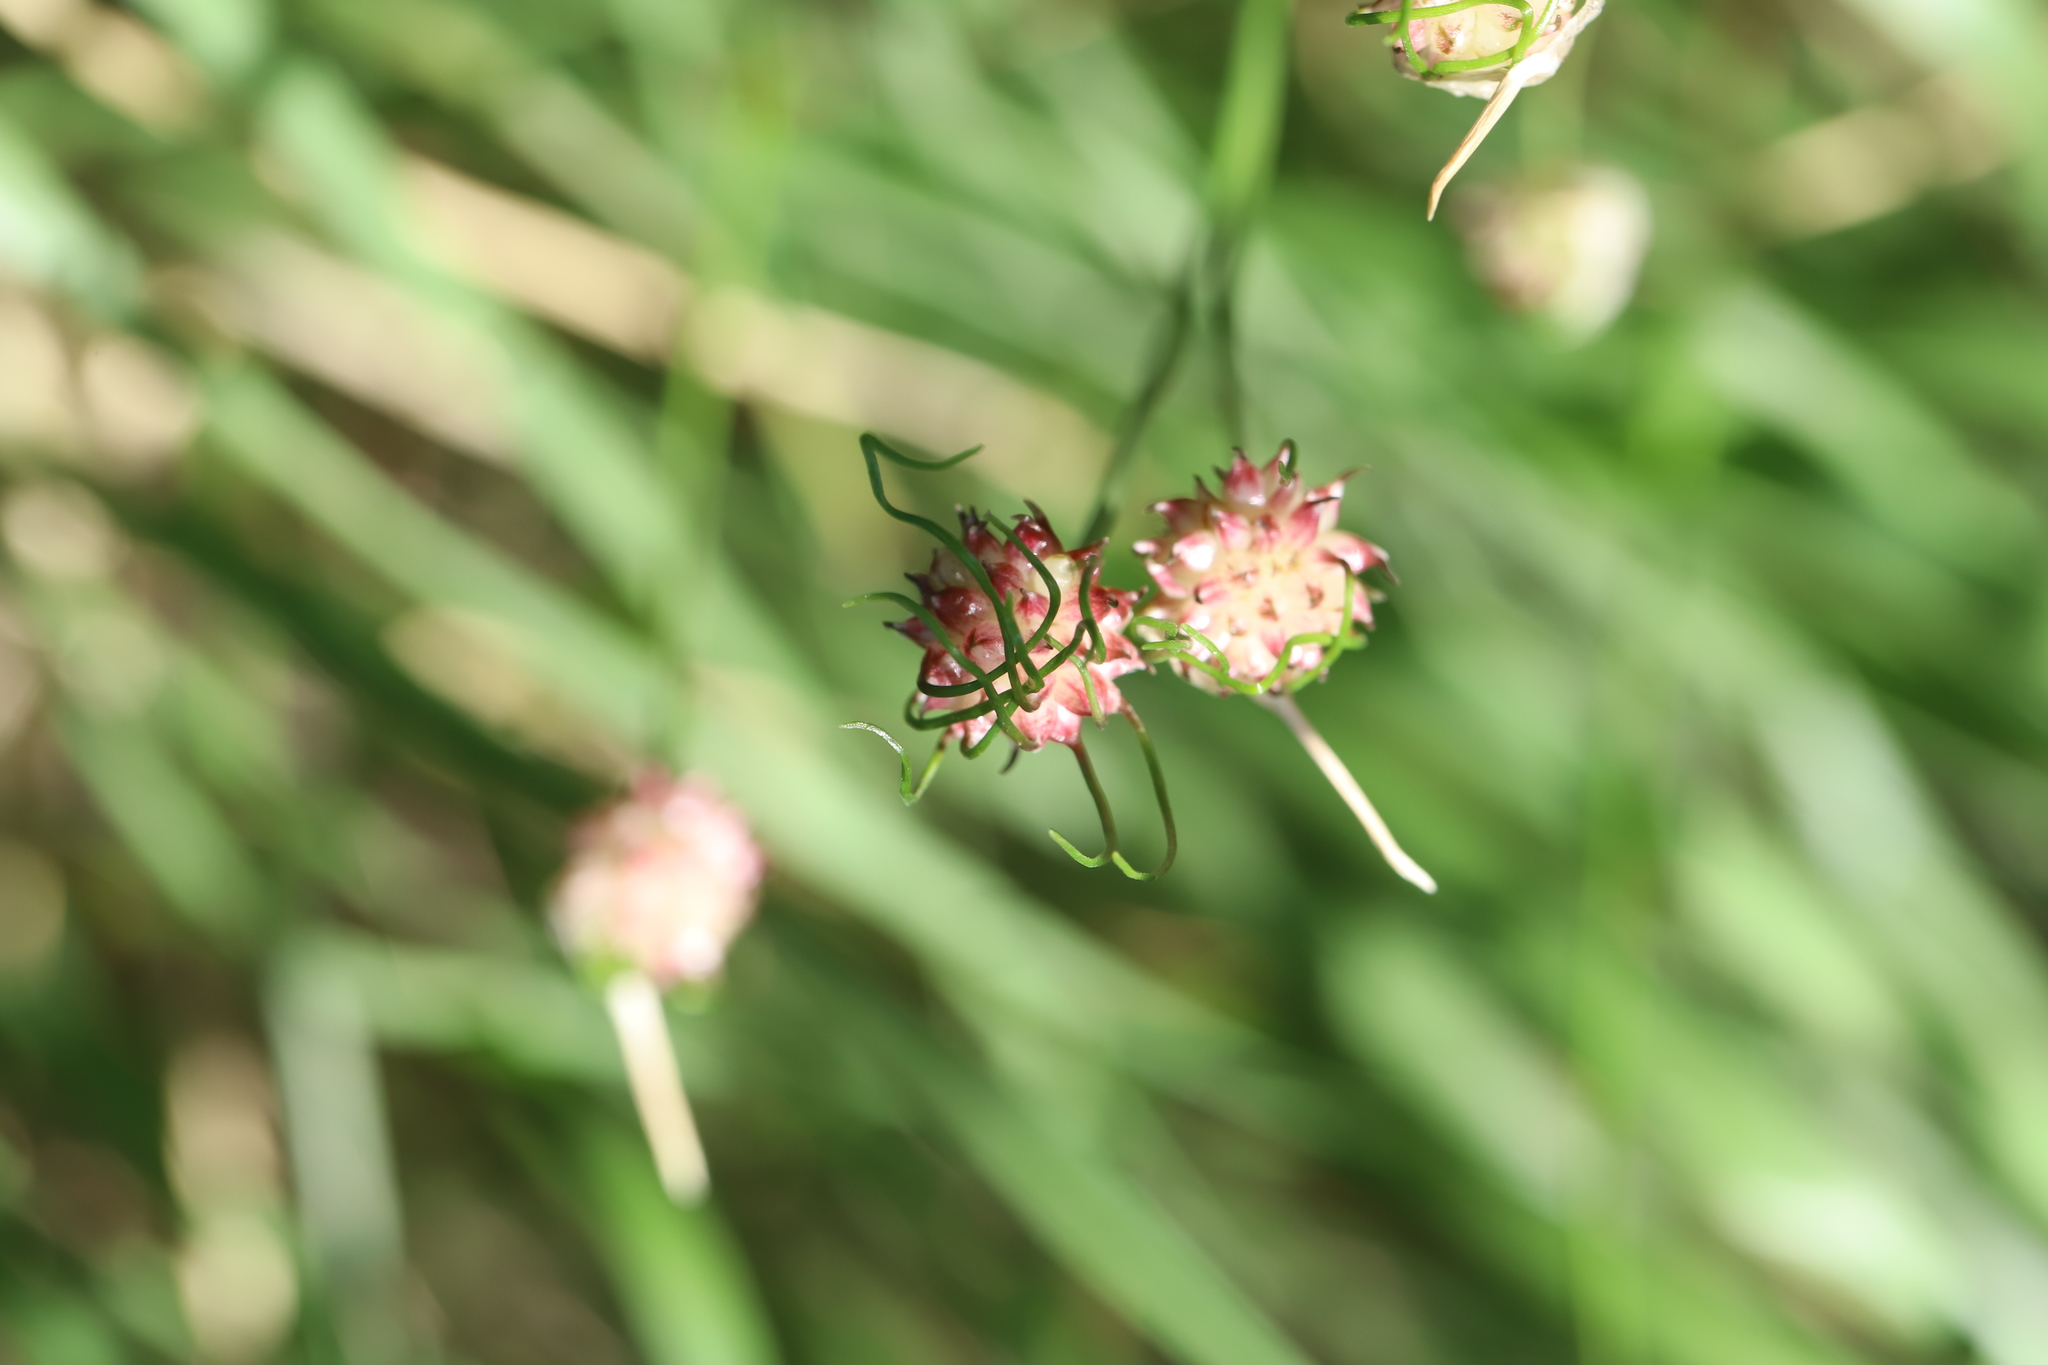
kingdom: Plantae
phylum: Tracheophyta
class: Liliopsida
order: Asparagales
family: Amaryllidaceae
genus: Allium
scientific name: Allium vineale
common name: Crow garlic
